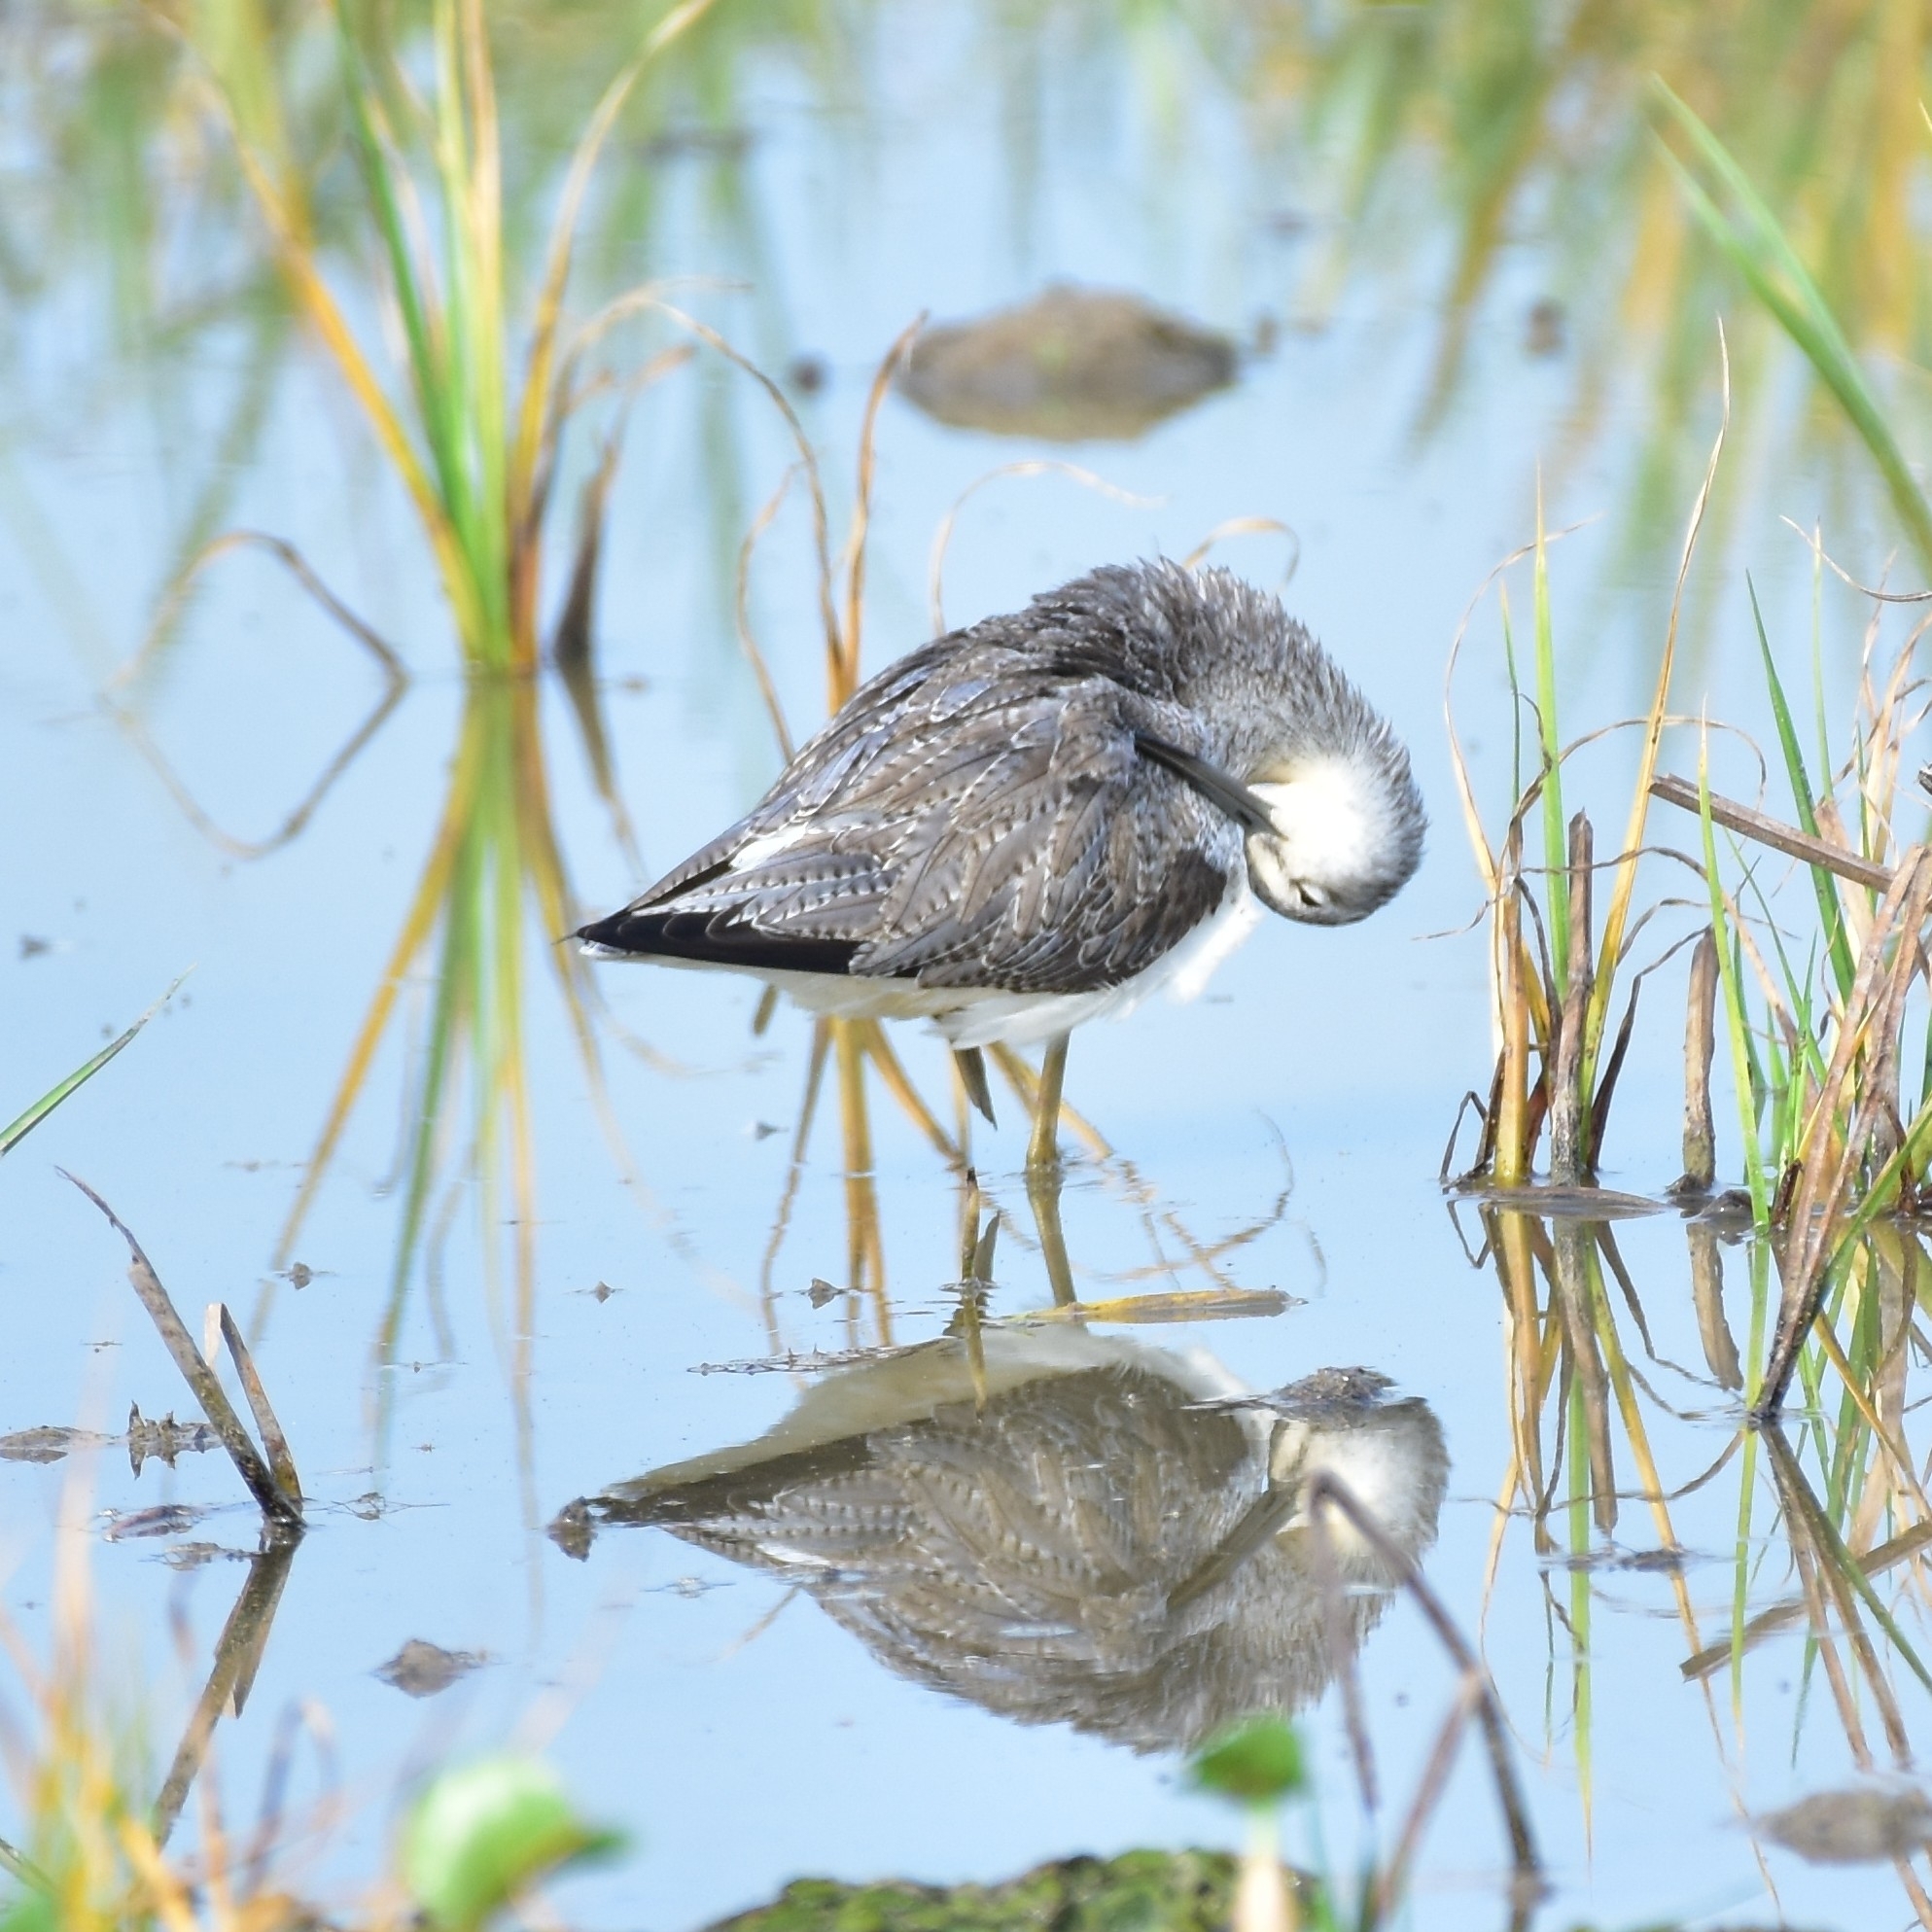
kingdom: Animalia
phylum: Chordata
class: Aves
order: Charadriiformes
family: Scolopacidae
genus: Tringa
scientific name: Tringa nebularia
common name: Common greenshank
